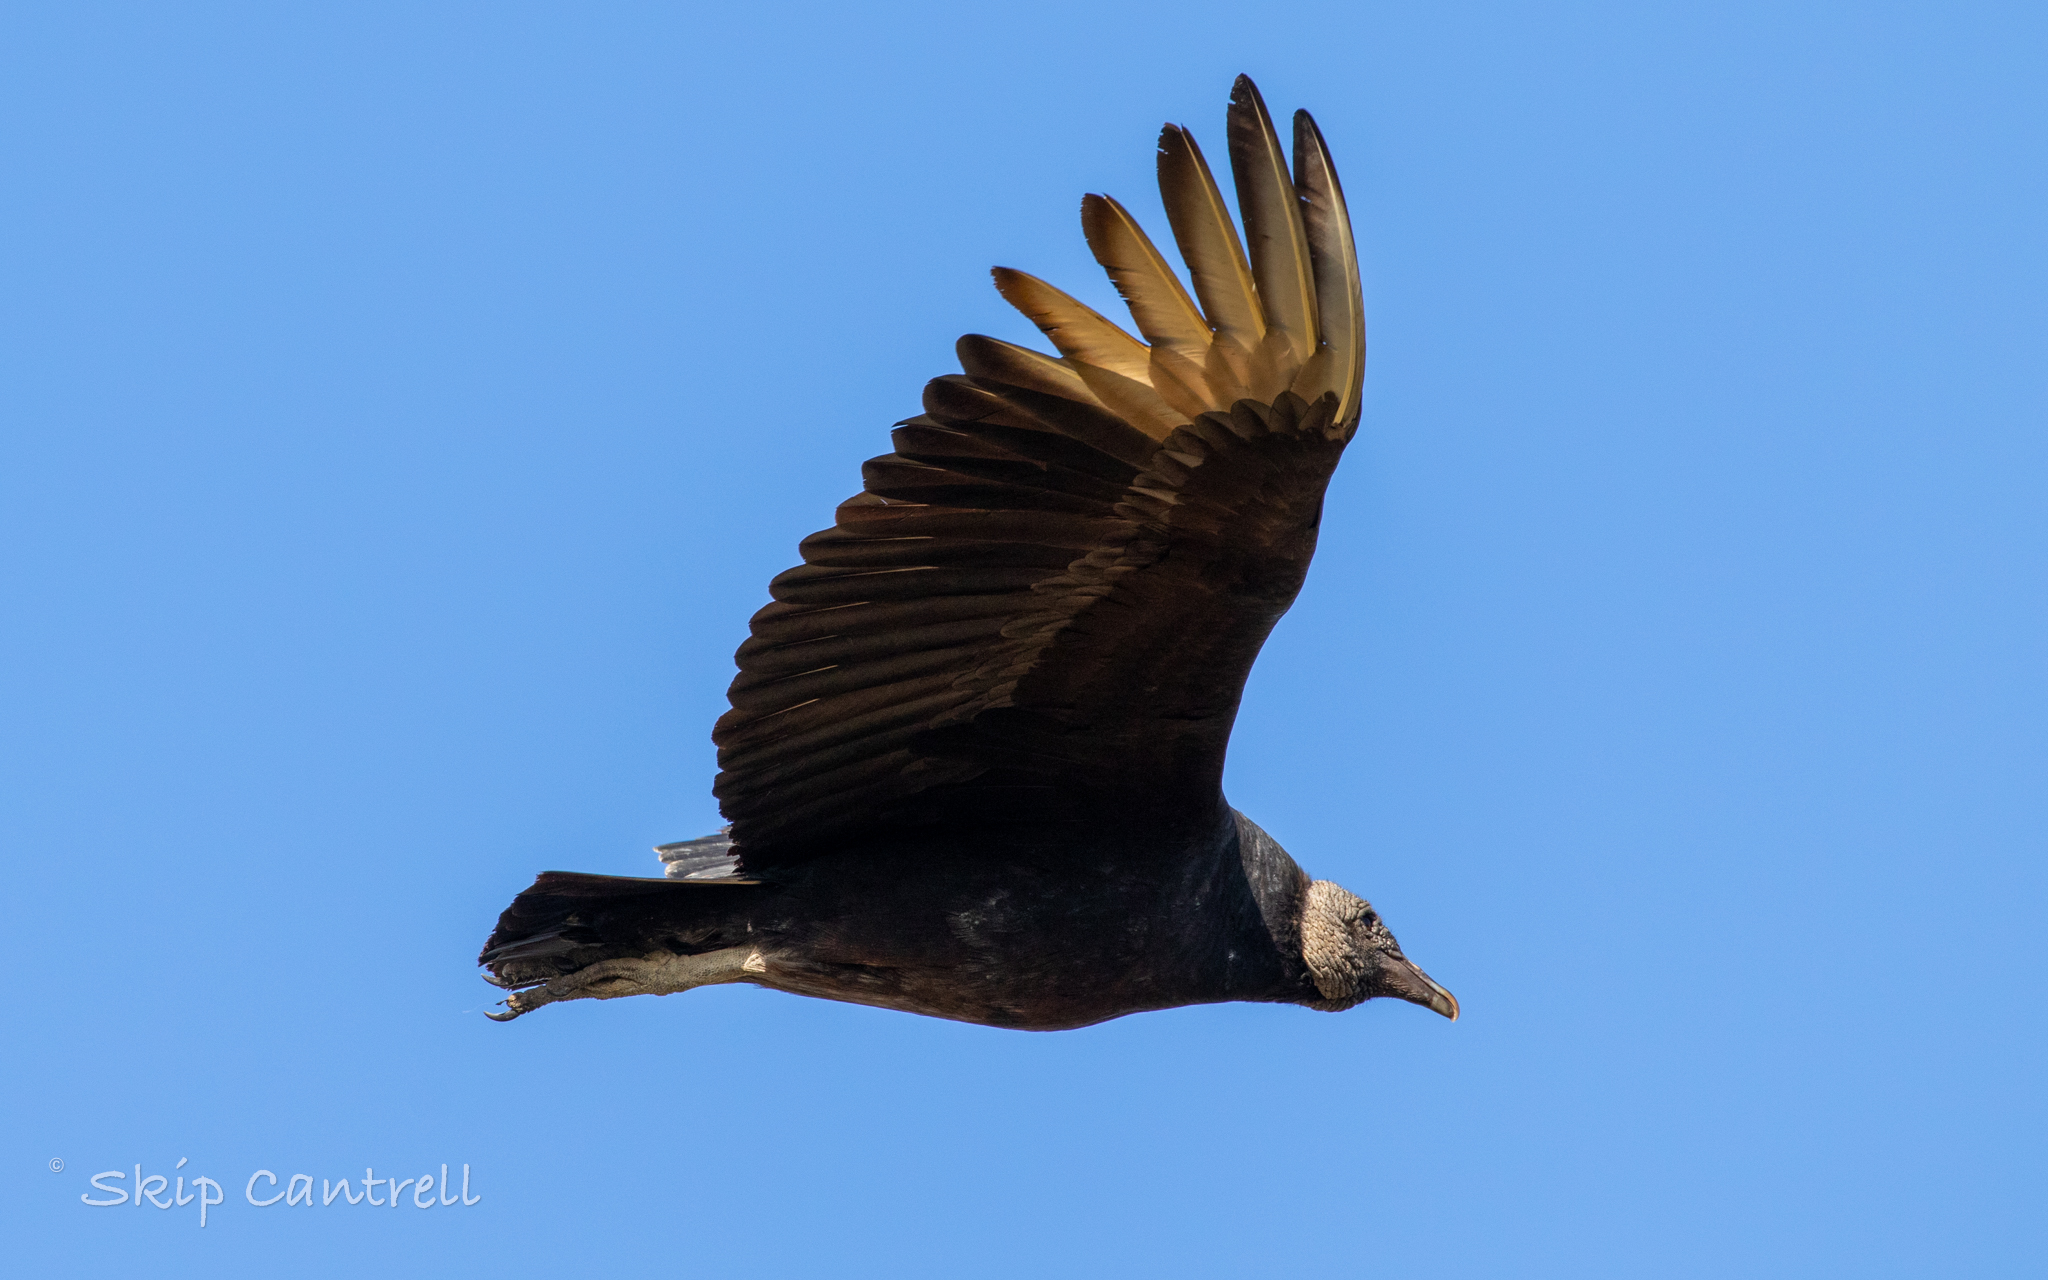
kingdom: Animalia
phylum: Chordata
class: Aves
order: Accipitriformes
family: Cathartidae
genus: Coragyps
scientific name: Coragyps atratus
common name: Black vulture
